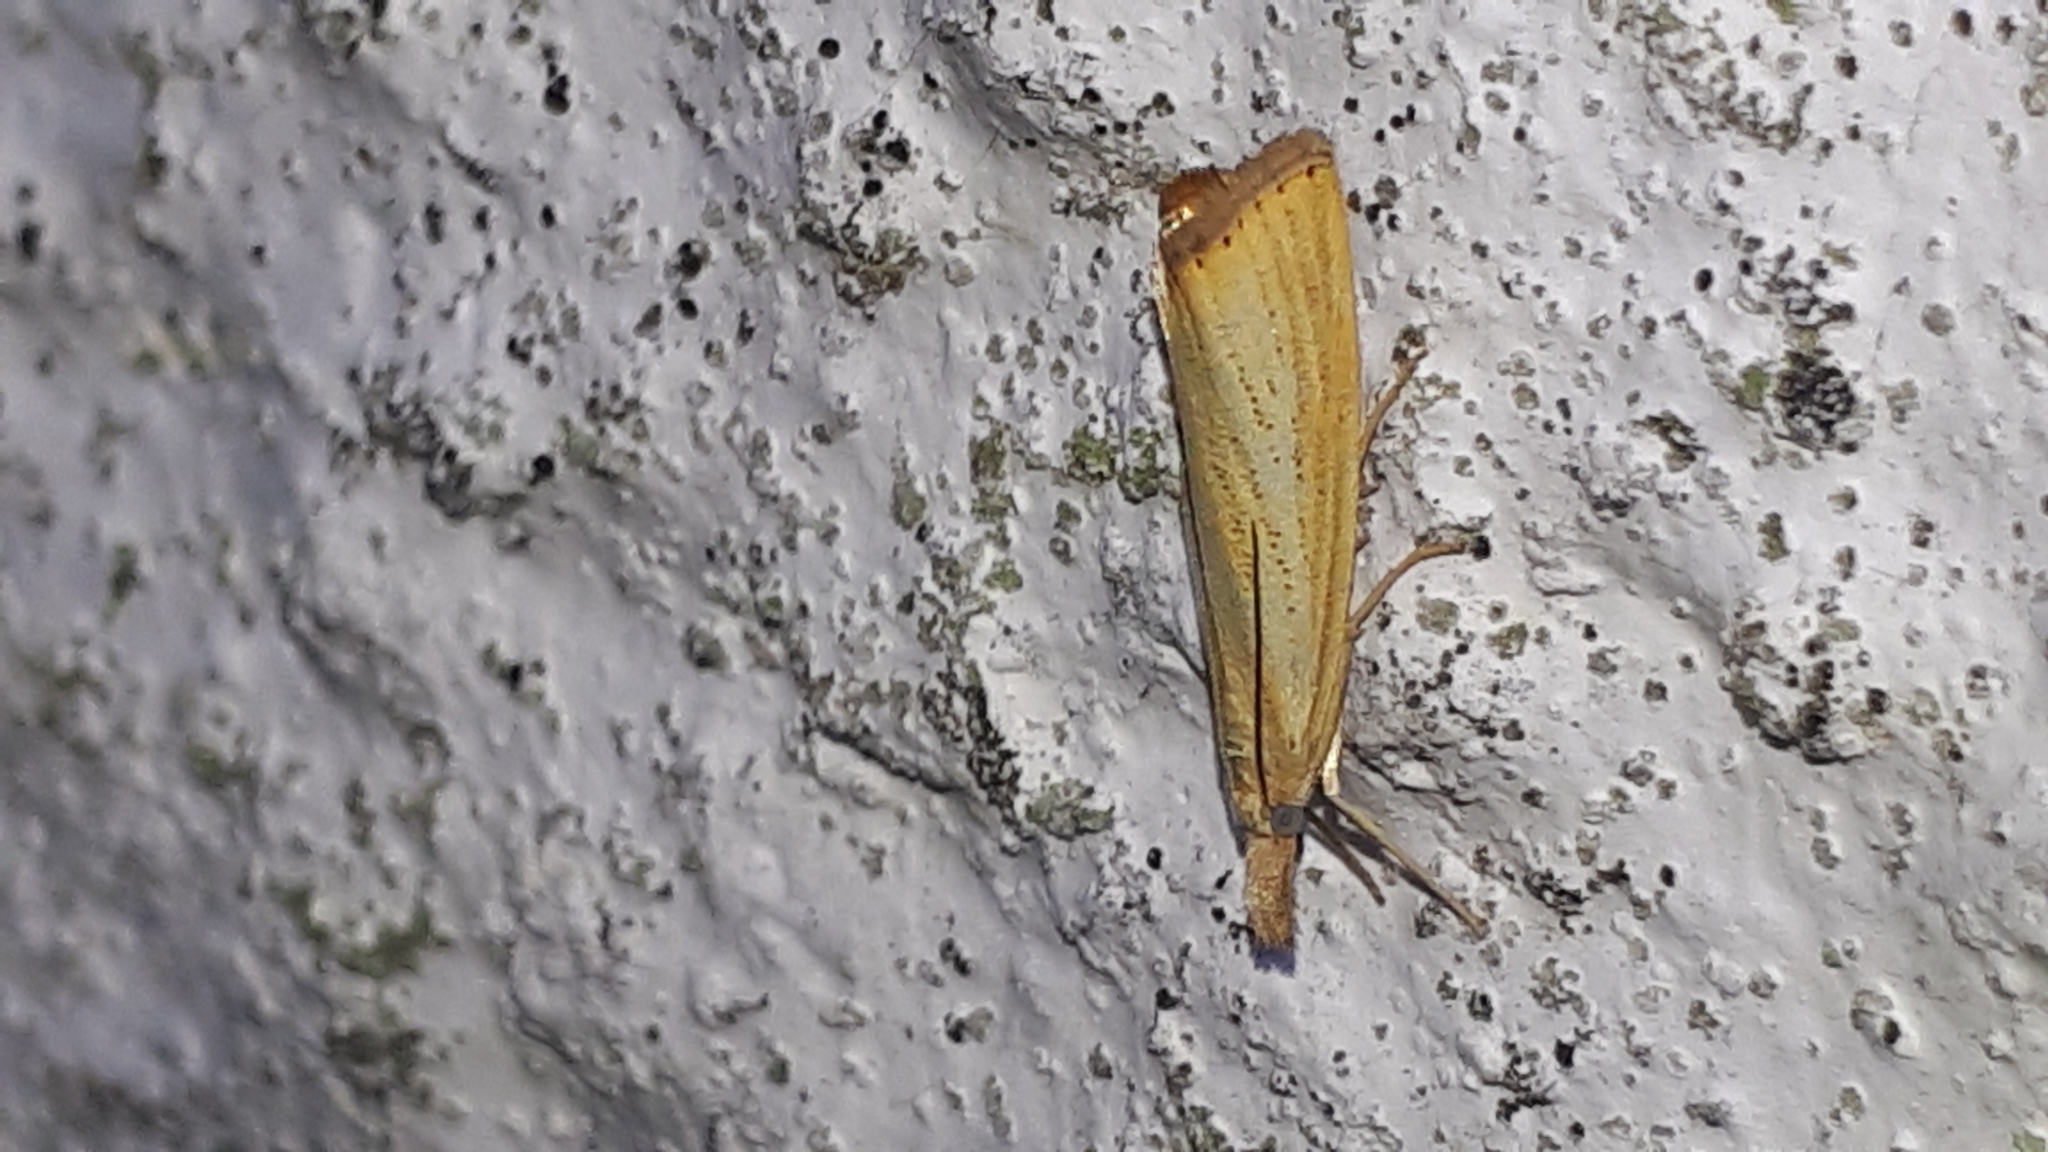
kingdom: Animalia
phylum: Arthropoda
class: Insecta
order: Lepidoptera
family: Crambidae
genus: Agriphila
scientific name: Agriphila straminella
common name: Straw grass-veneer
